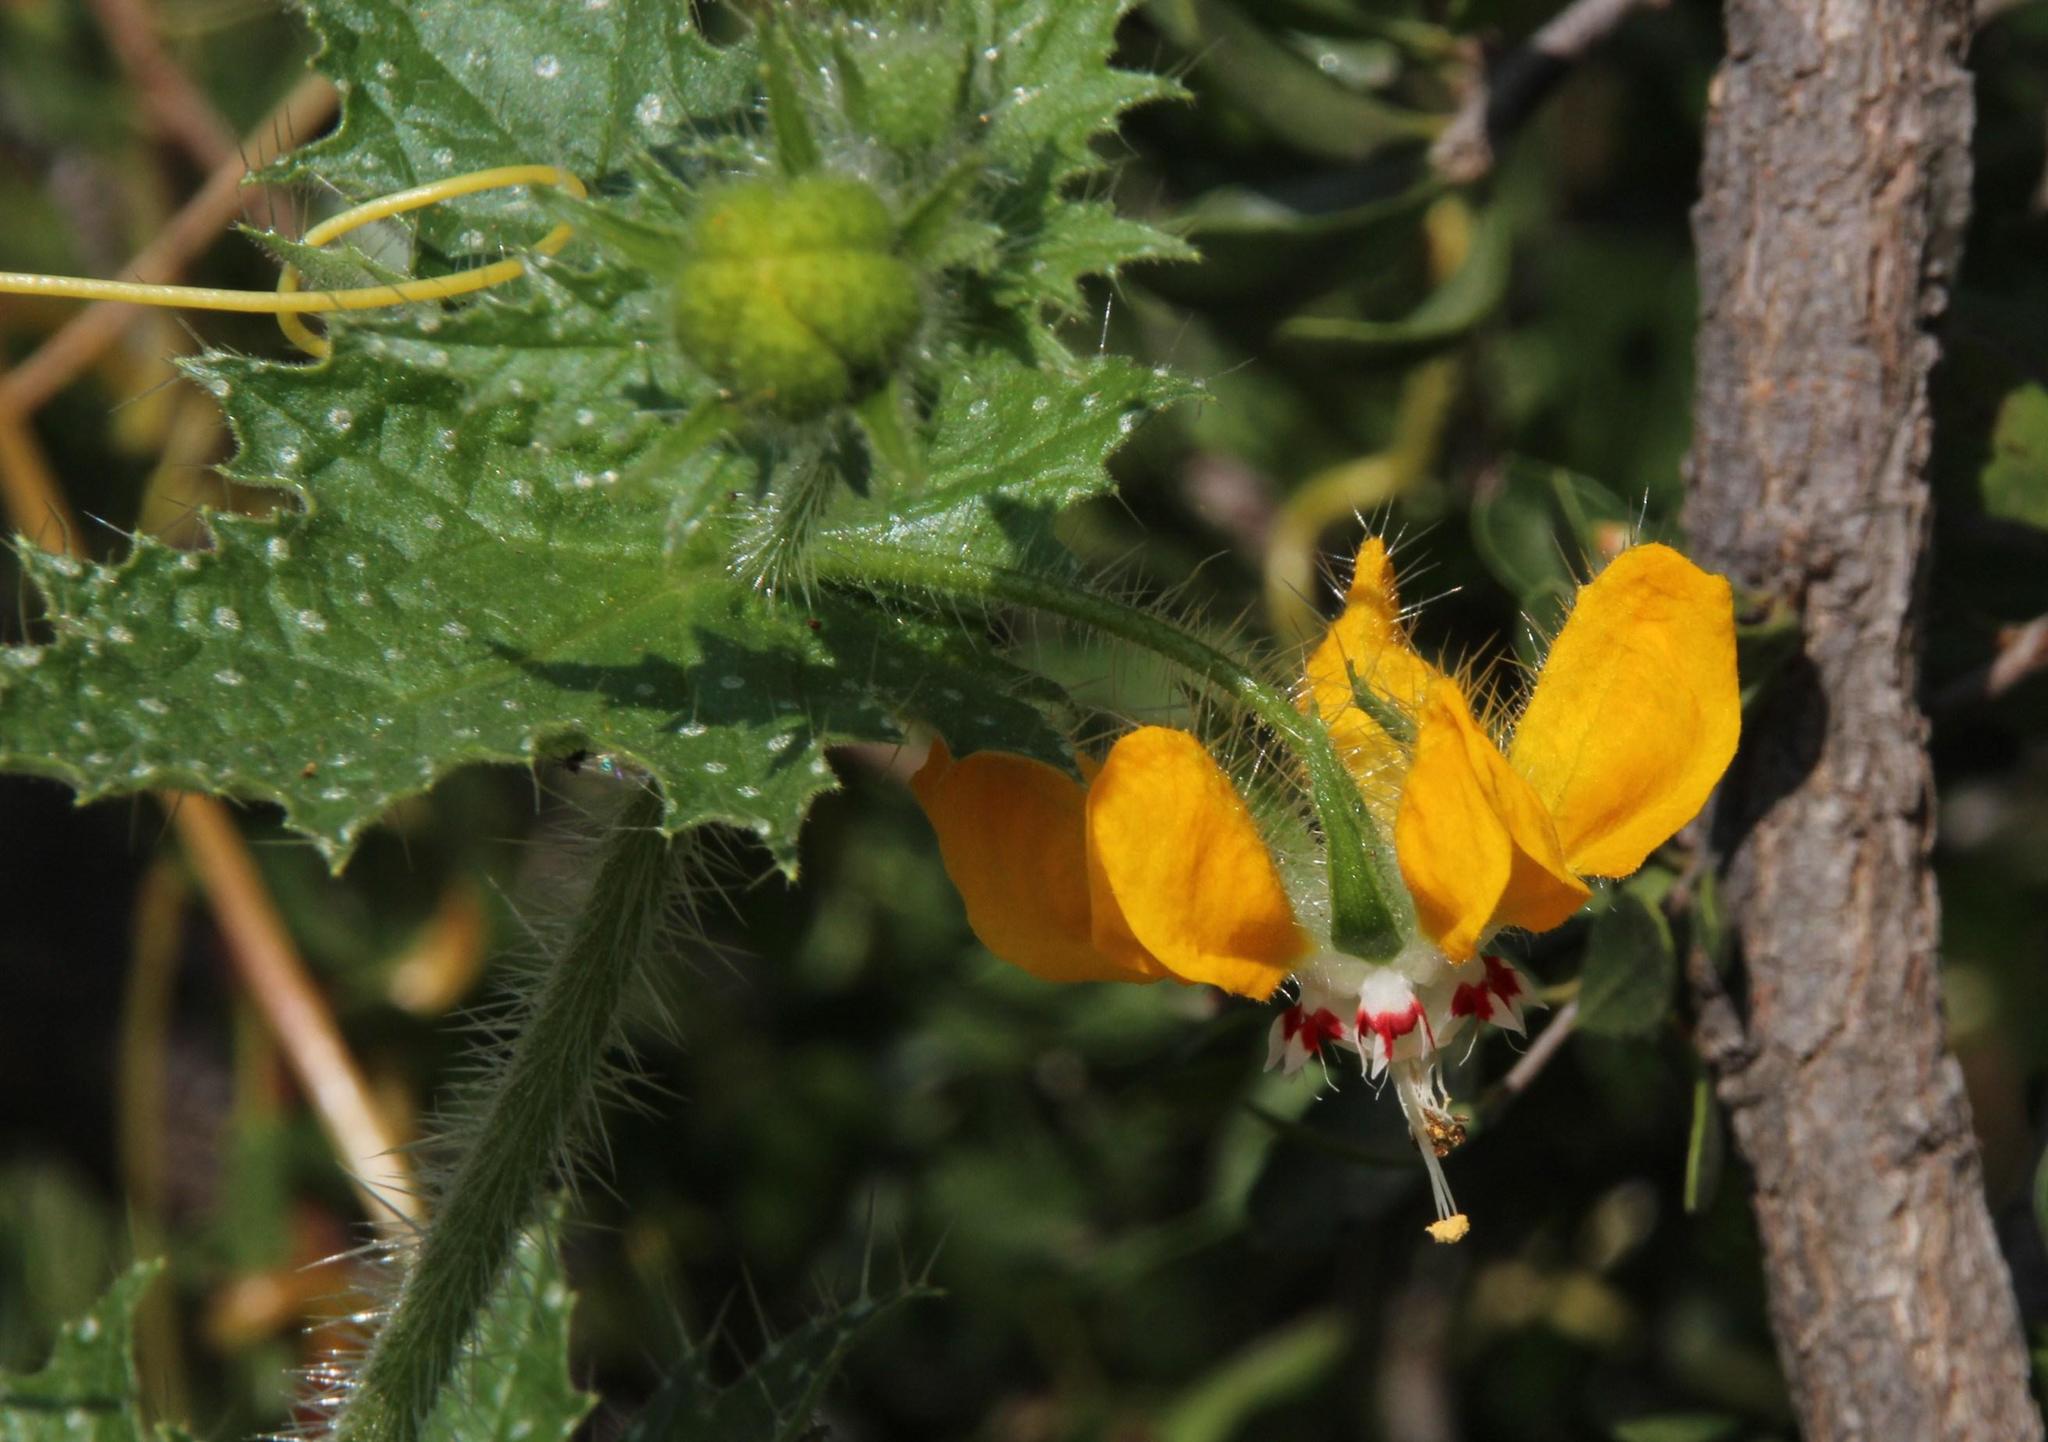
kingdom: Plantae
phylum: Tracheophyta
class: Magnoliopsida
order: Cornales
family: Loasaceae
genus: Loasa
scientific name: Loasa placei
